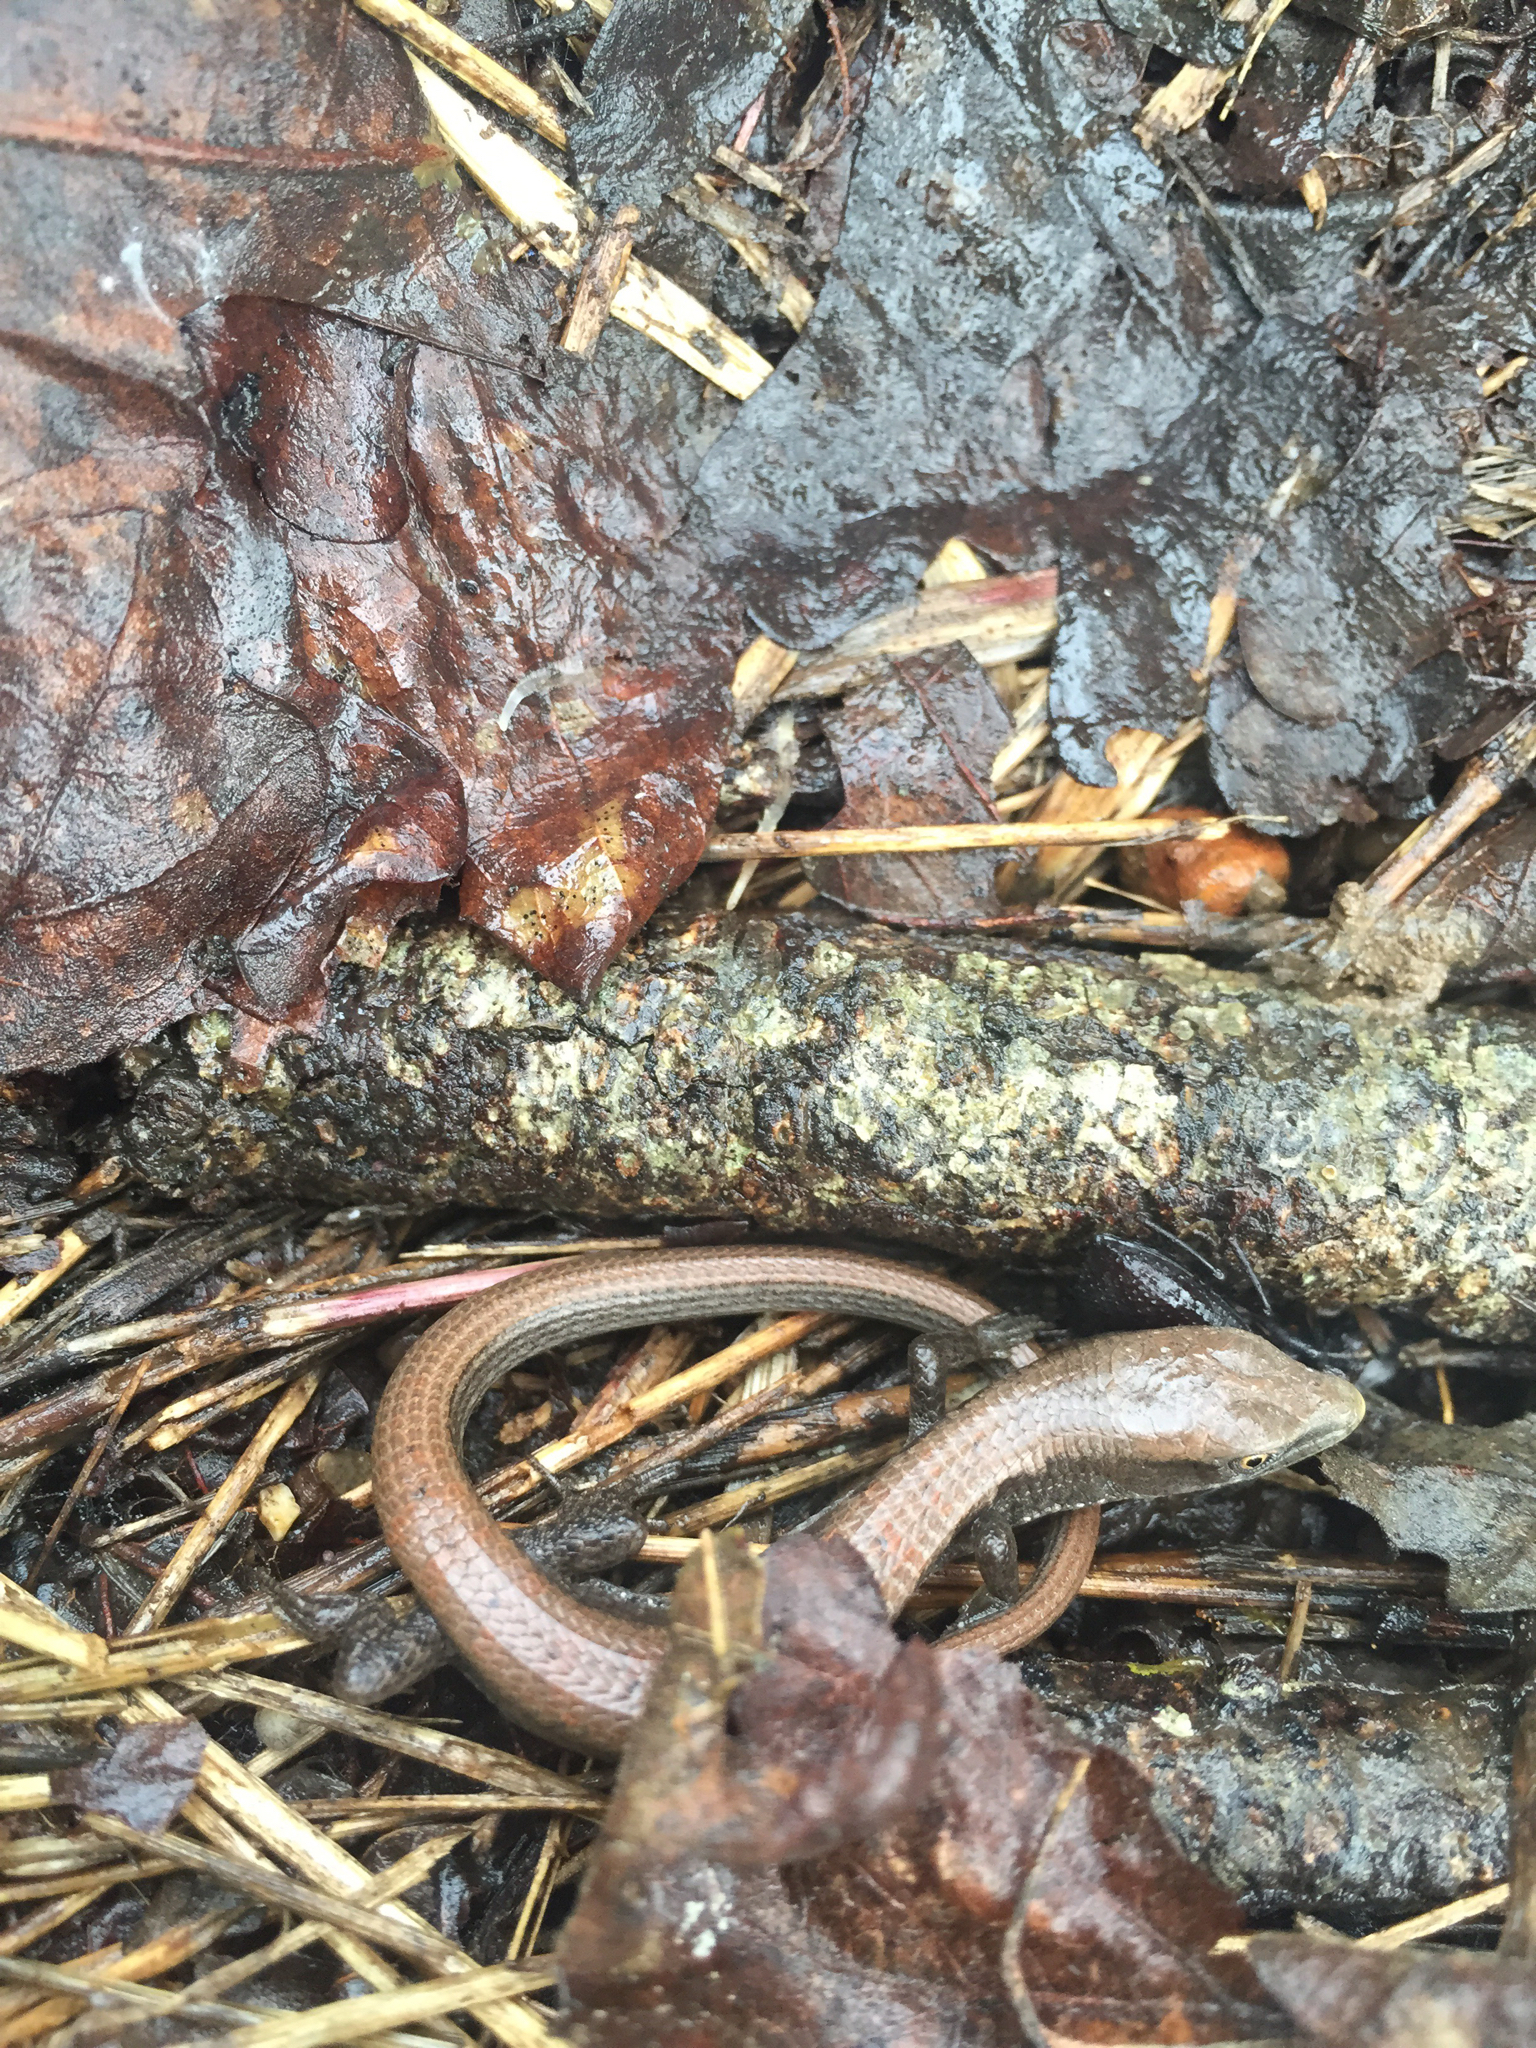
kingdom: Animalia
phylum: Chordata
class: Squamata
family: Anguidae
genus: Elgaria
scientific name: Elgaria multicarinata
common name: Southern alligator lizard
